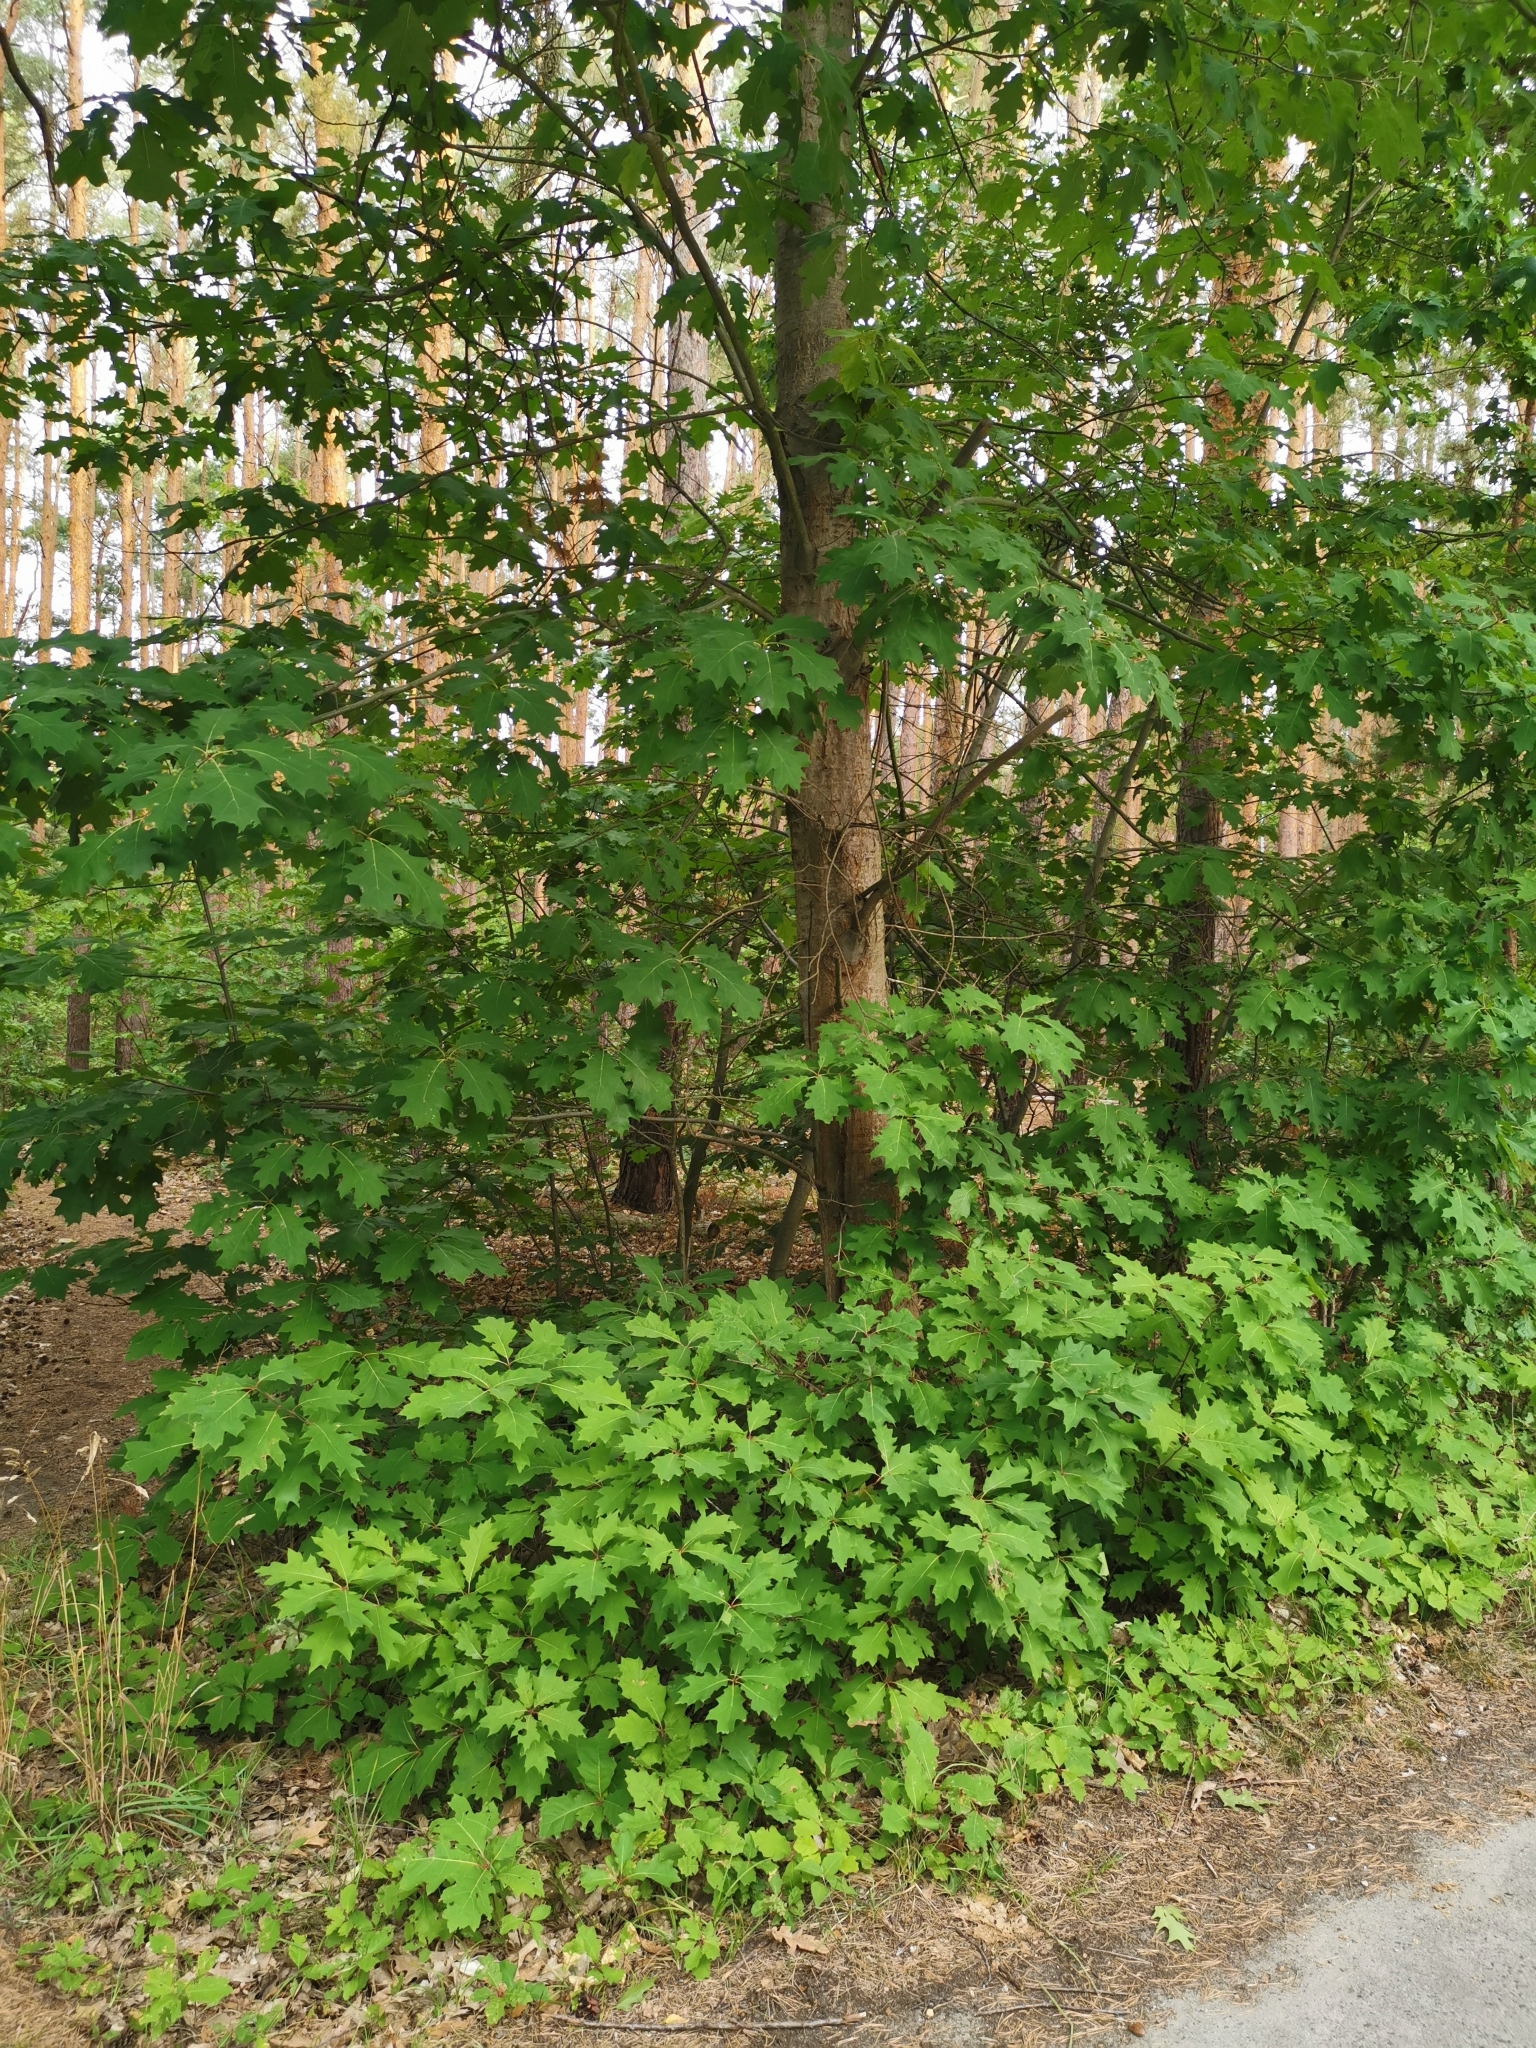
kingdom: Plantae
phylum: Tracheophyta
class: Magnoliopsida
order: Fagales
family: Fagaceae
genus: Quercus
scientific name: Quercus rubra
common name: Red oak
